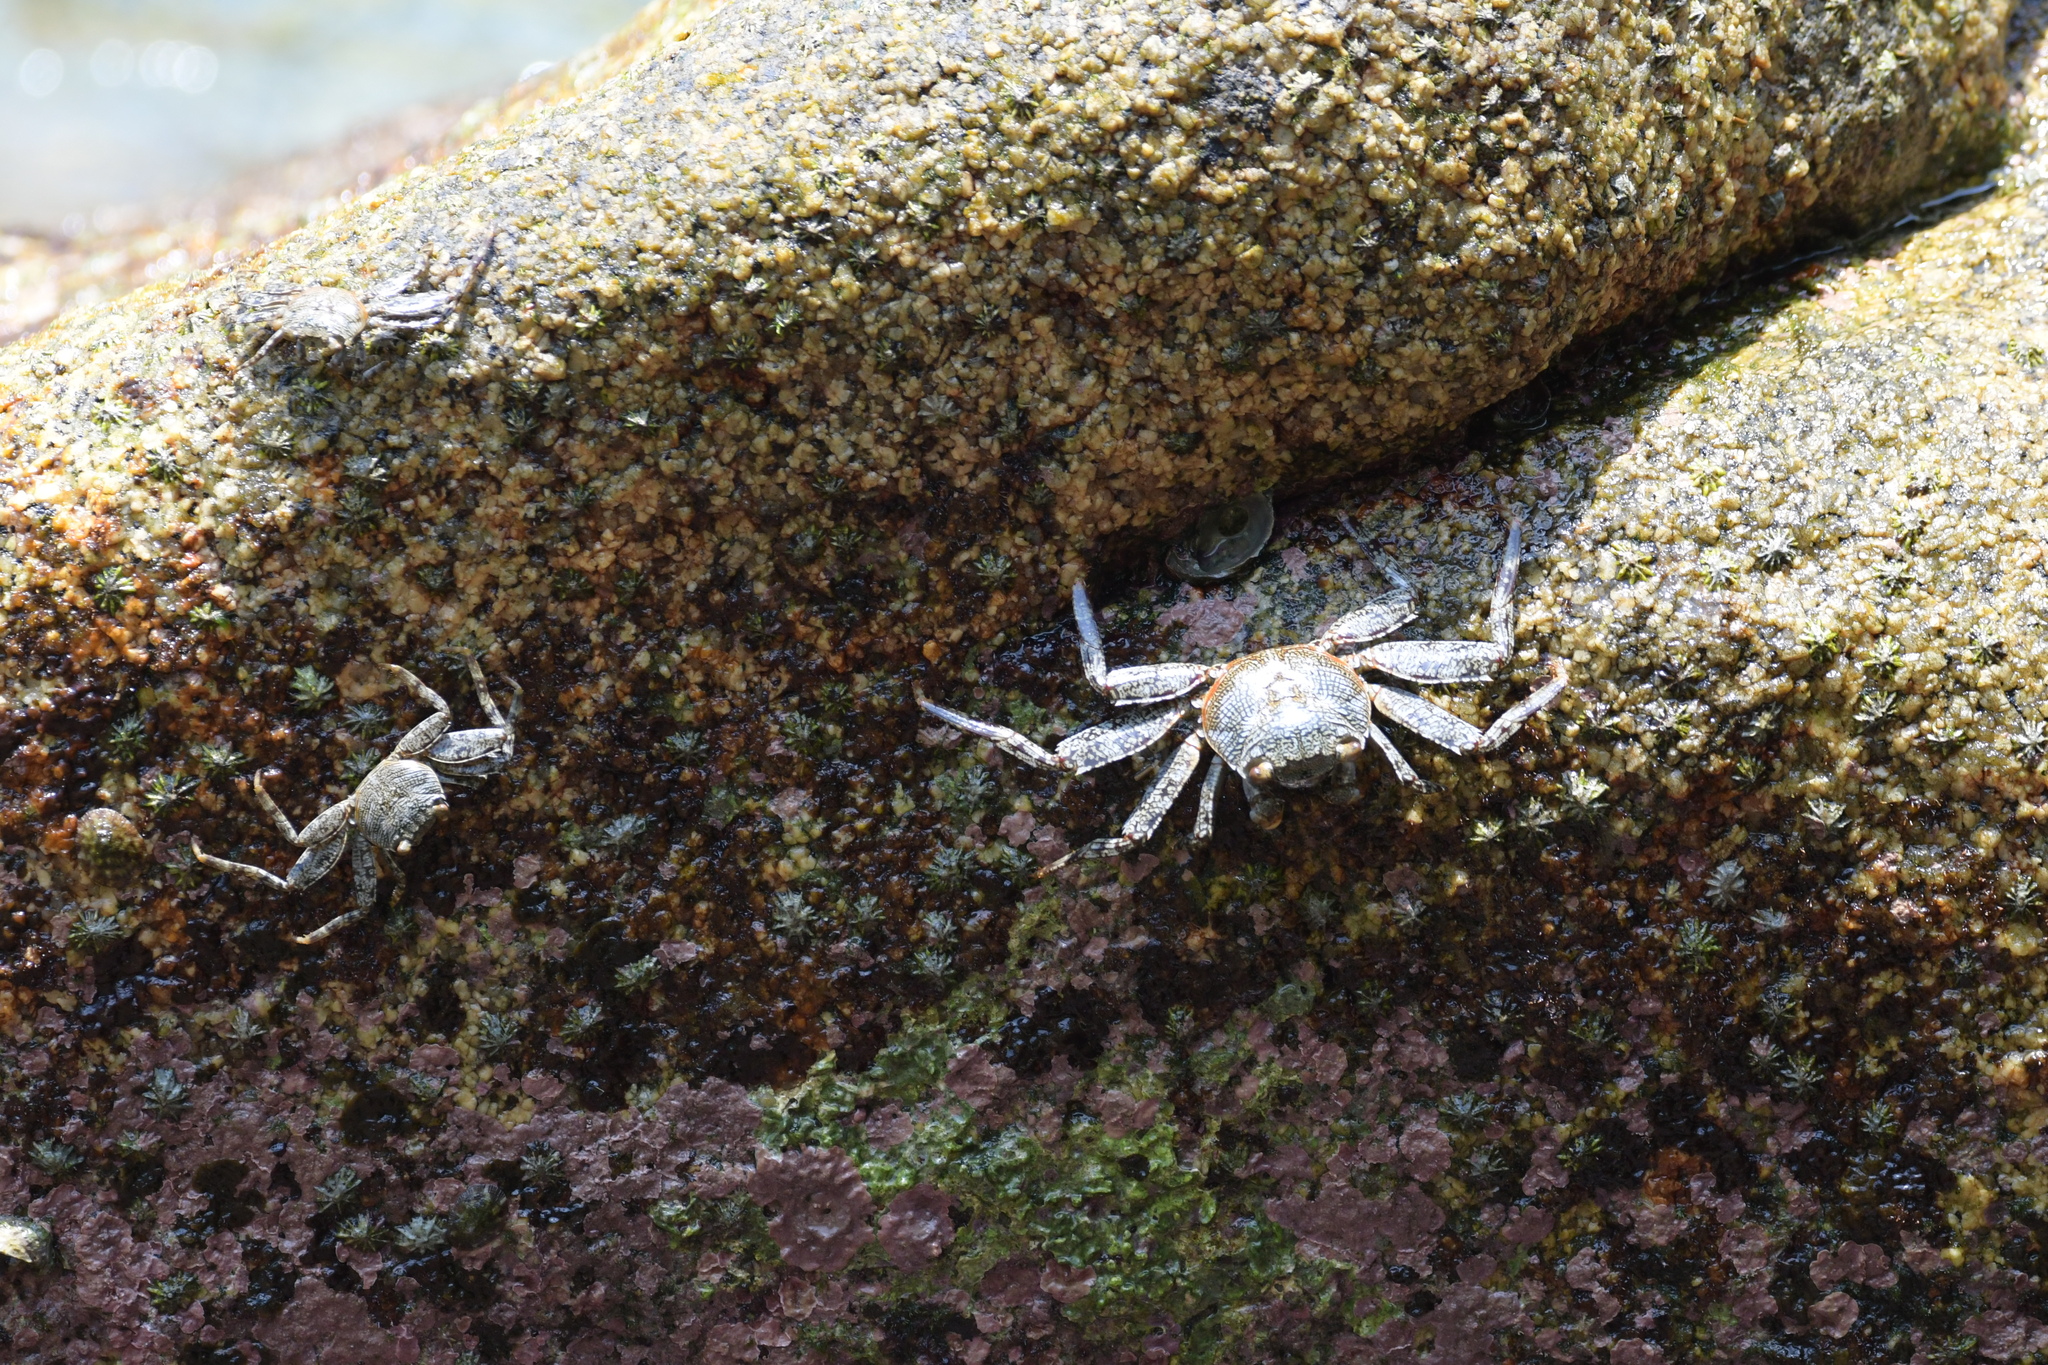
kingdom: Animalia
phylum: Arthropoda
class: Malacostraca
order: Decapoda
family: Grapsidae
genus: Grapsus
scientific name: Grapsus grapsus
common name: Sally lightfoot
